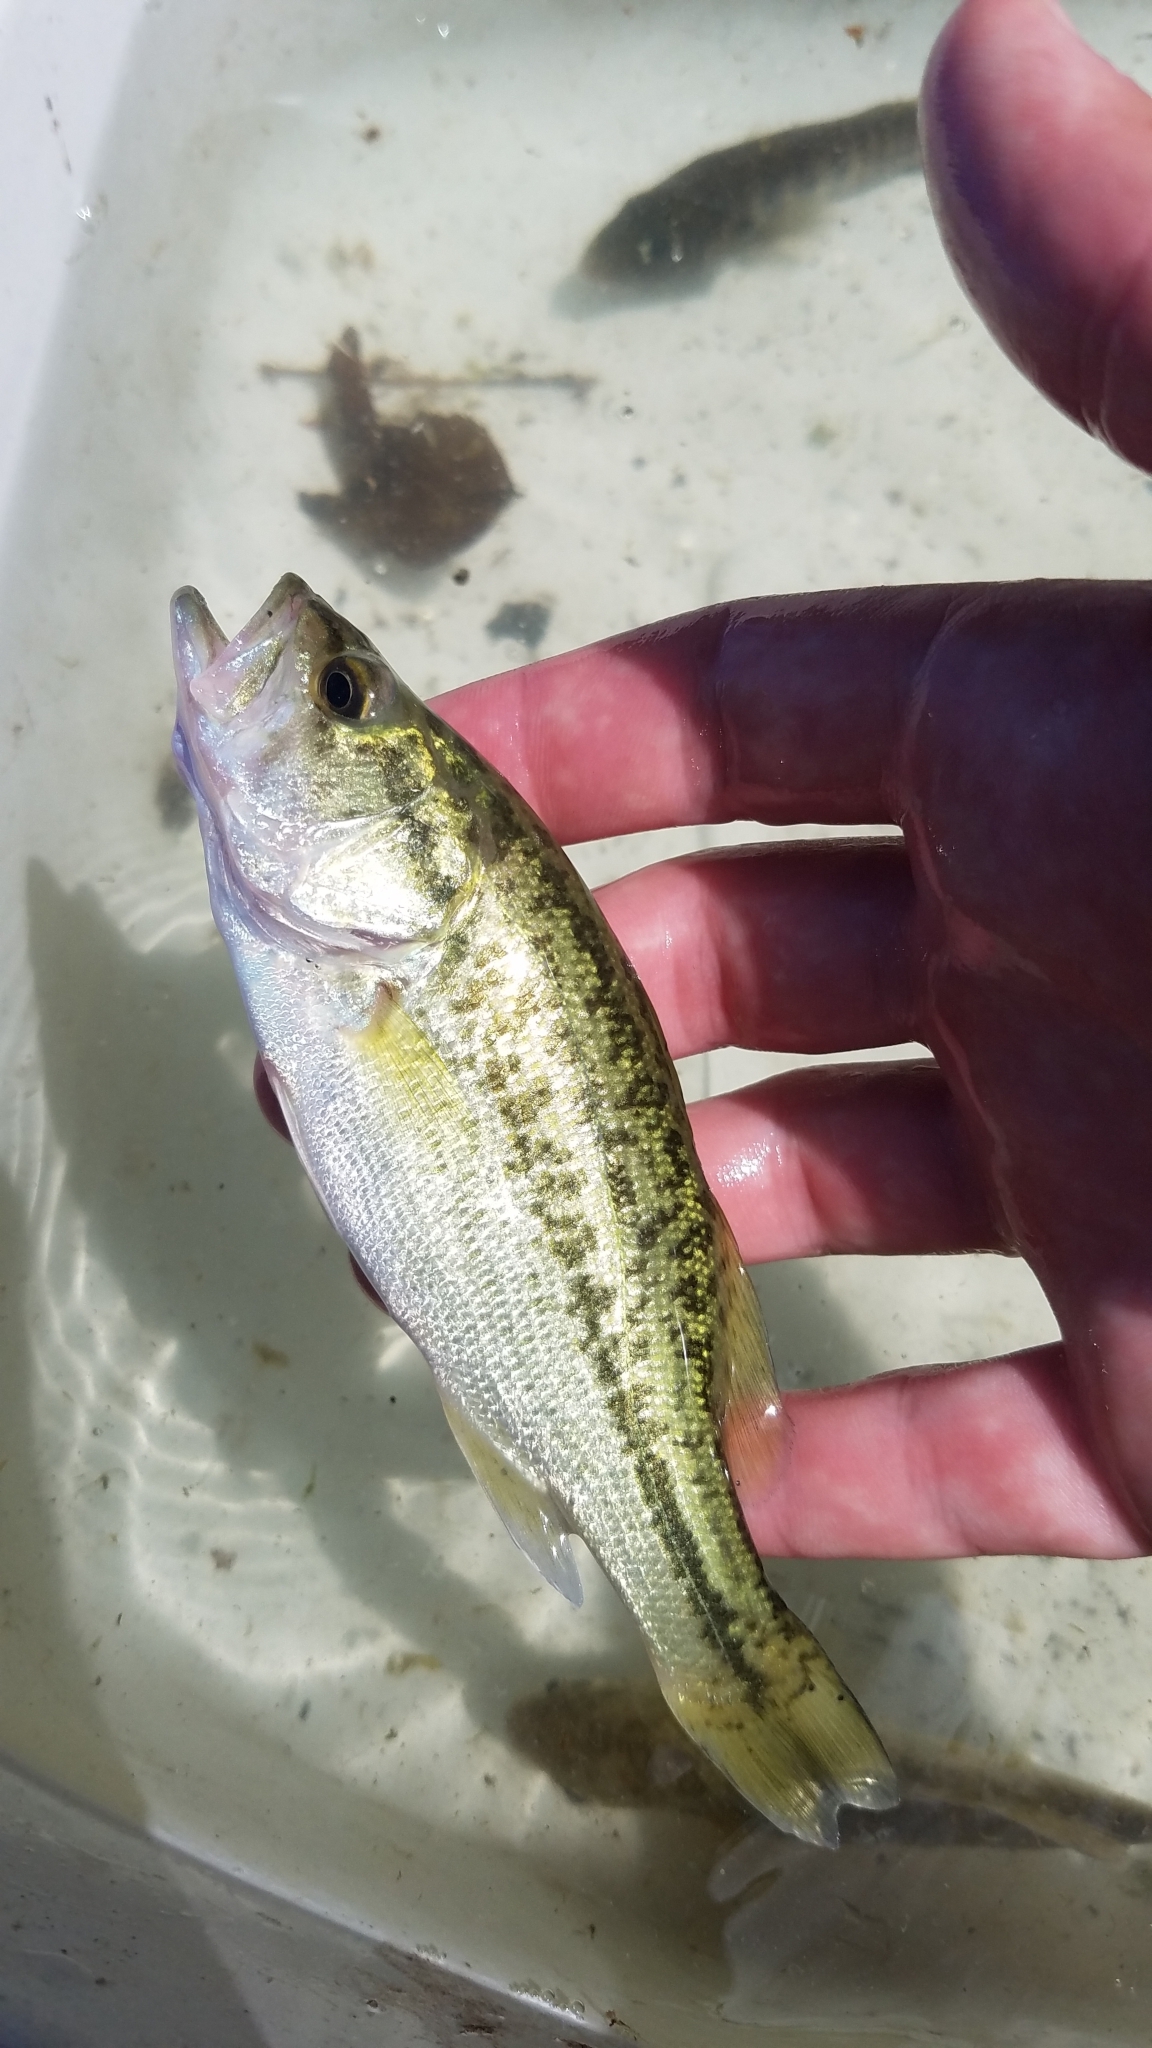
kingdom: Animalia
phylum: Chordata
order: Perciformes
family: Centrarchidae
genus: Micropterus
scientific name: Micropterus
